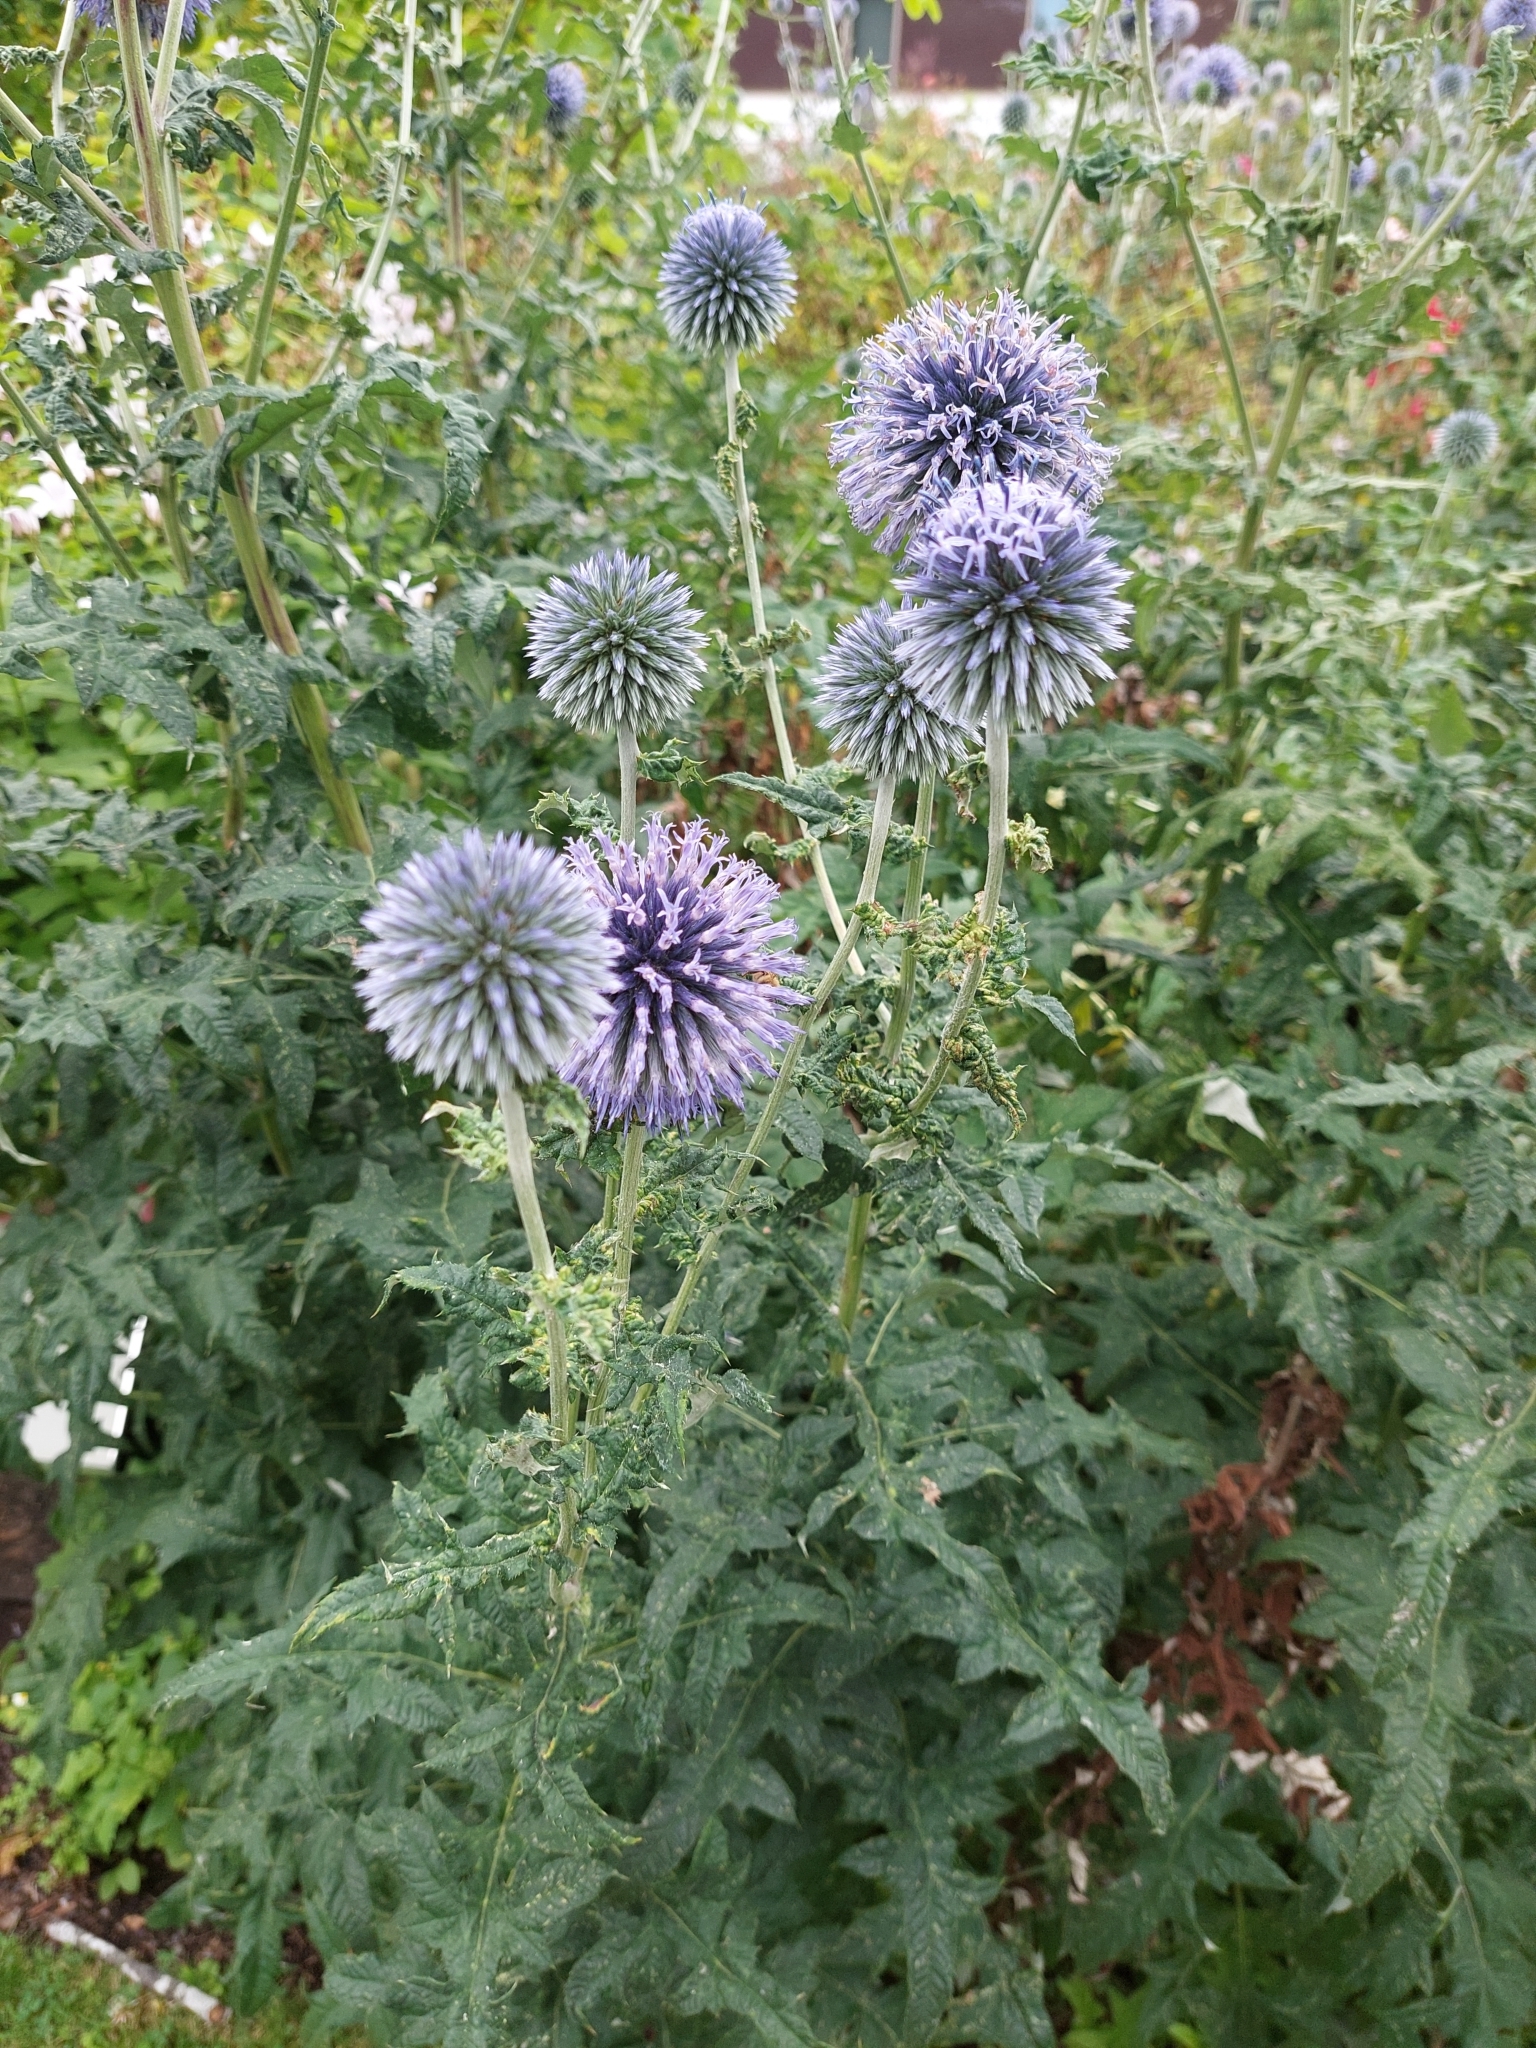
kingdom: Plantae
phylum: Tracheophyta
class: Magnoliopsida
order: Asterales
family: Asteraceae
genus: Echinops
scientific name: Echinops bannaticus
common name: Blue globe-thistle
